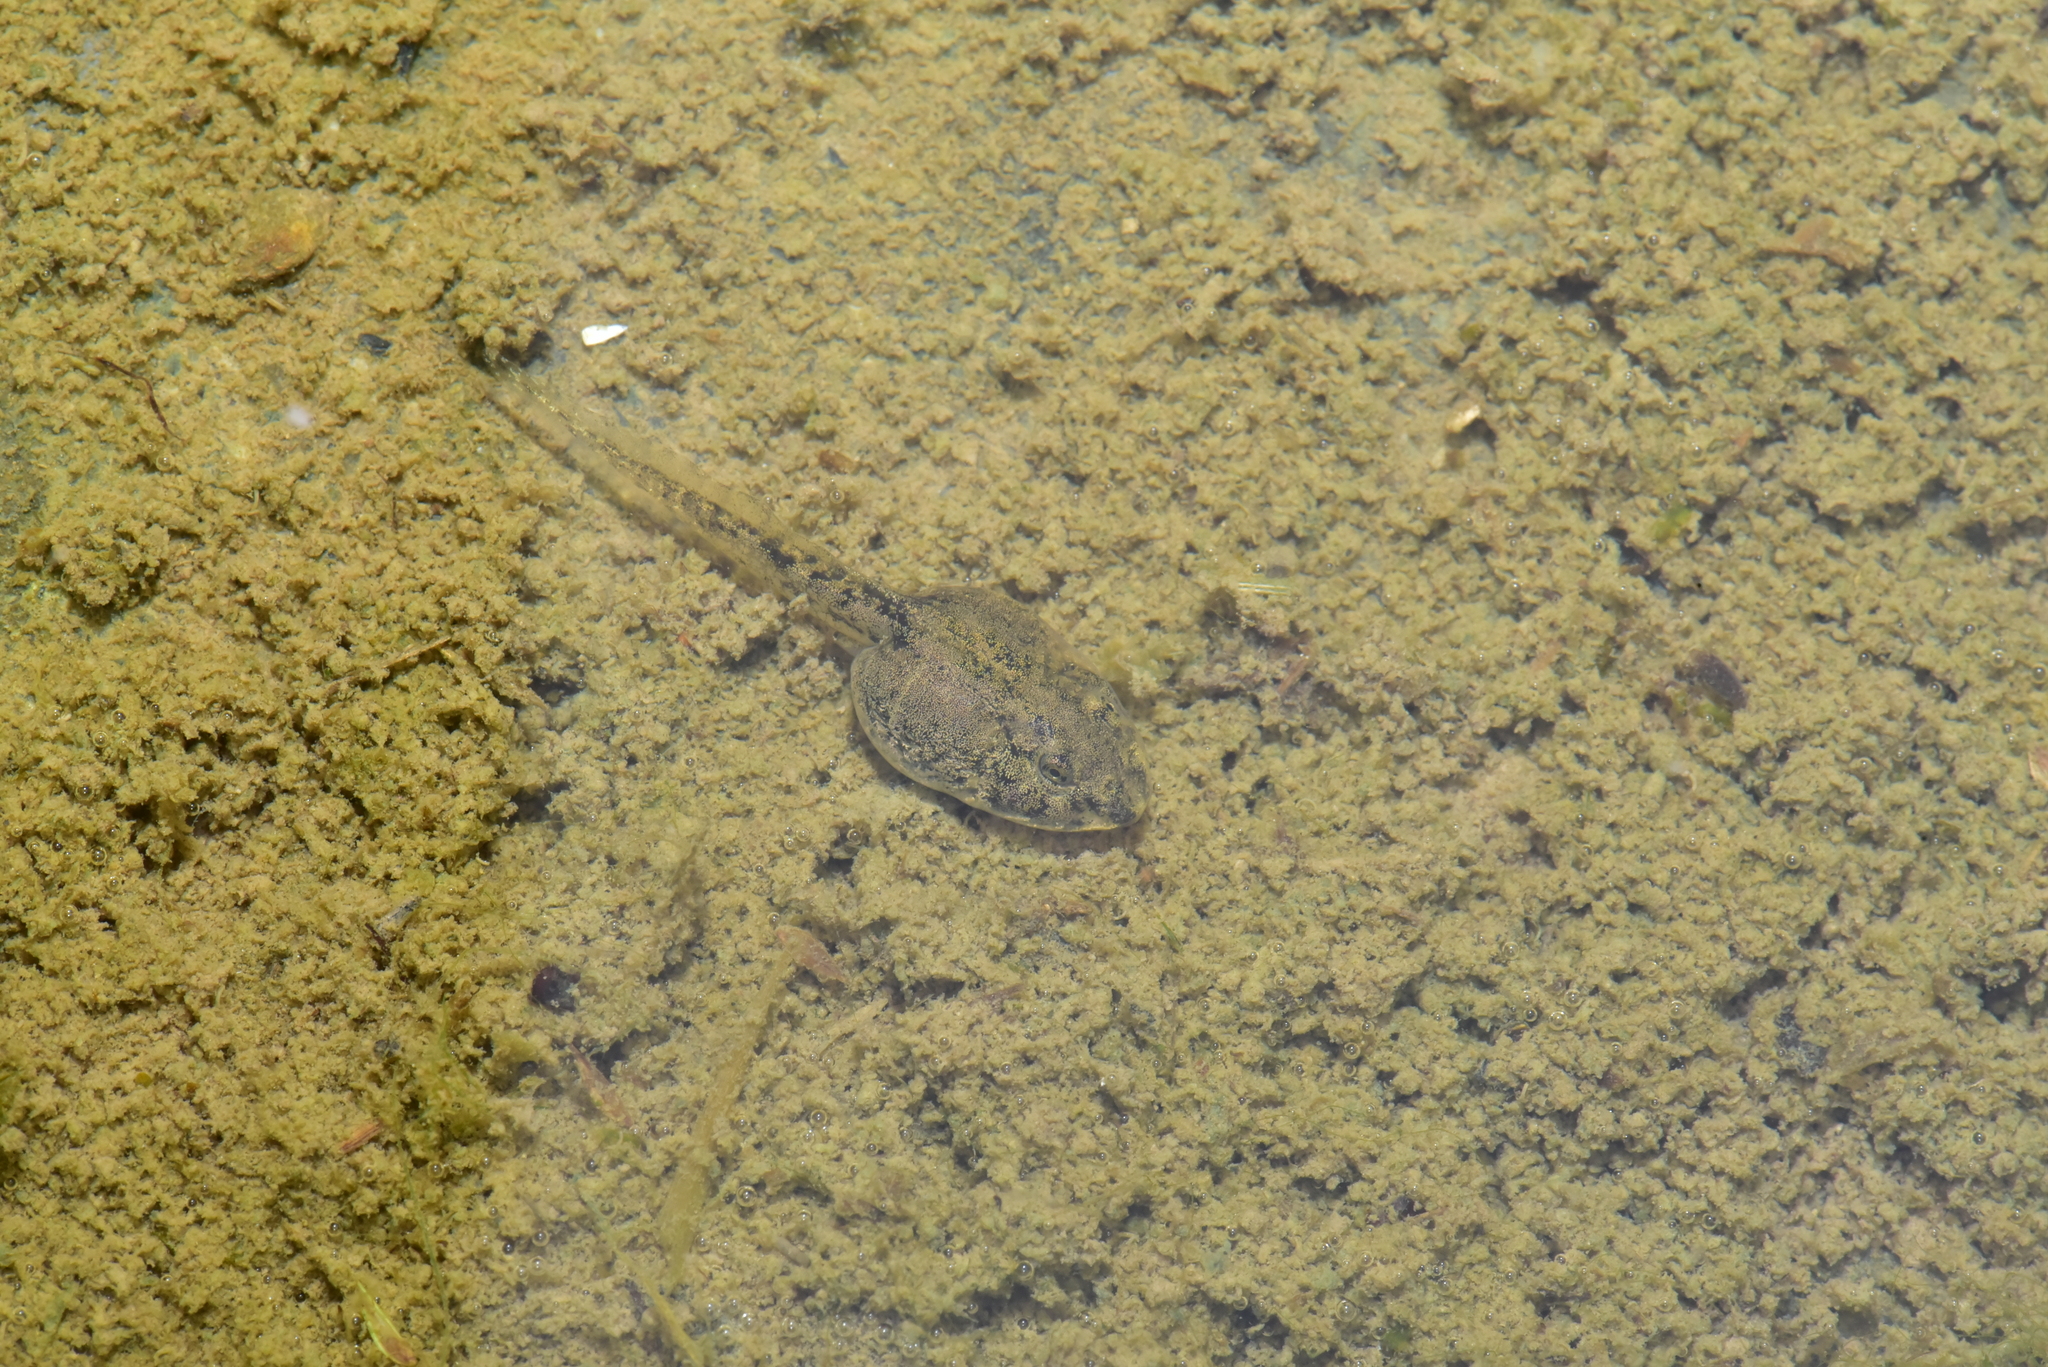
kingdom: Animalia
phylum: Chordata
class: Amphibia
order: Anura
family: Dicroglossidae
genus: Fejervarya
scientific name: Fejervarya limnocharis
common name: Asian grass frog/common pond frog/field frog/grass frog/indian rice frog
